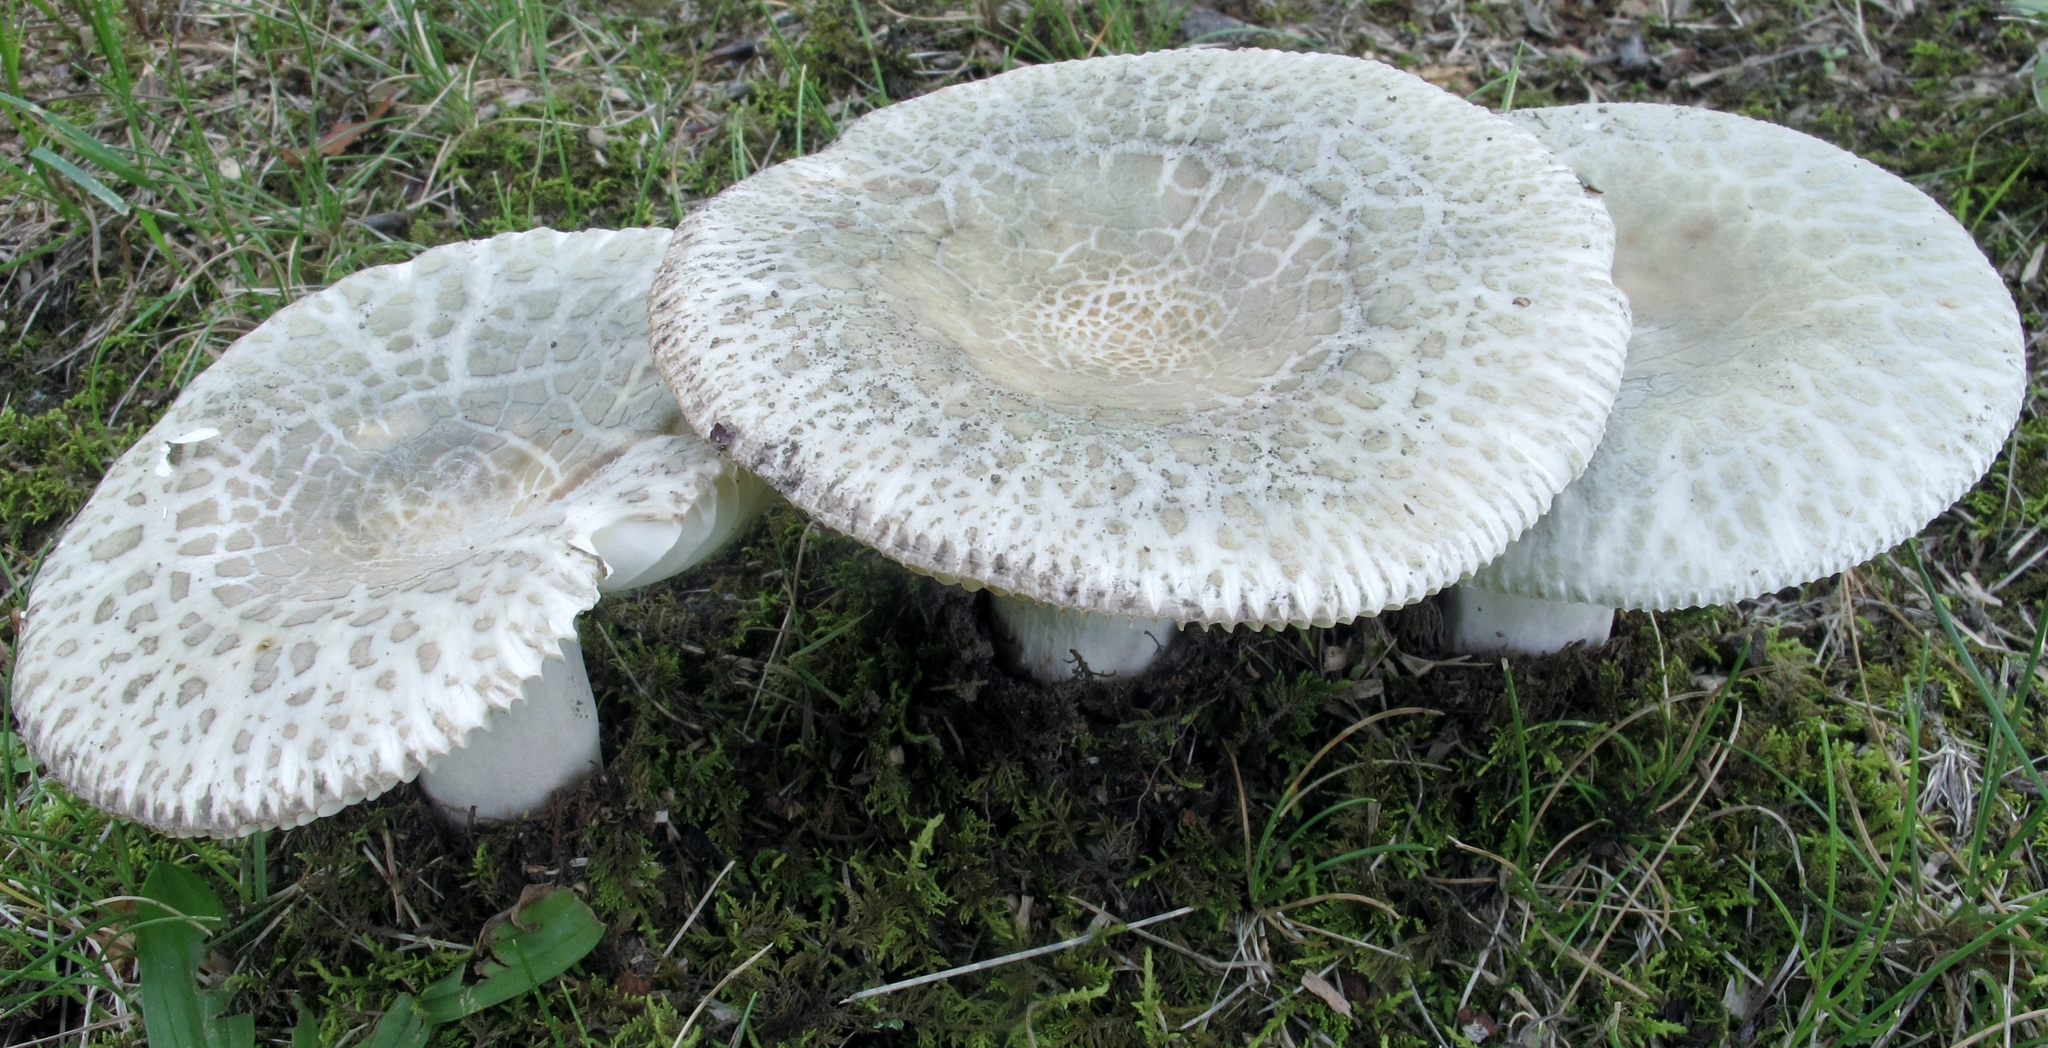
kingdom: Fungi
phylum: Basidiomycota
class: Agaricomycetes
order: Russulales
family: Russulaceae
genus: Russula
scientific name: Russula parvovirescens
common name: Blue-green cracking russula
